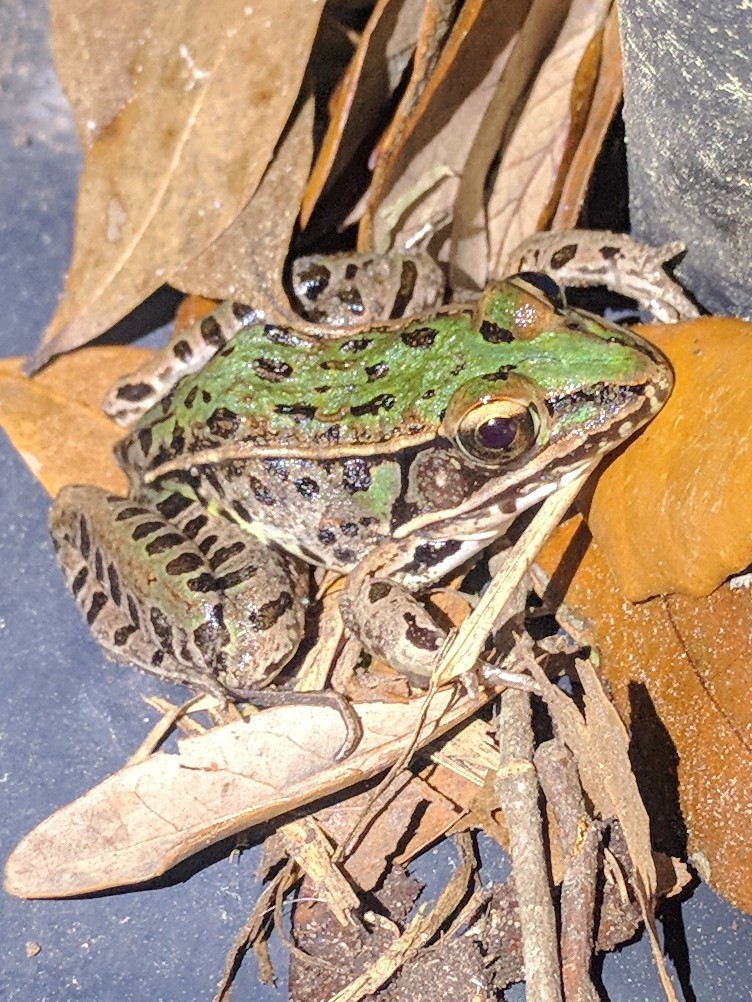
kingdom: Animalia
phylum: Chordata
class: Amphibia
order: Anura
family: Ranidae
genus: Lithobates
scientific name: Lithobates sphenocephalus
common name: Southern leopard frog
